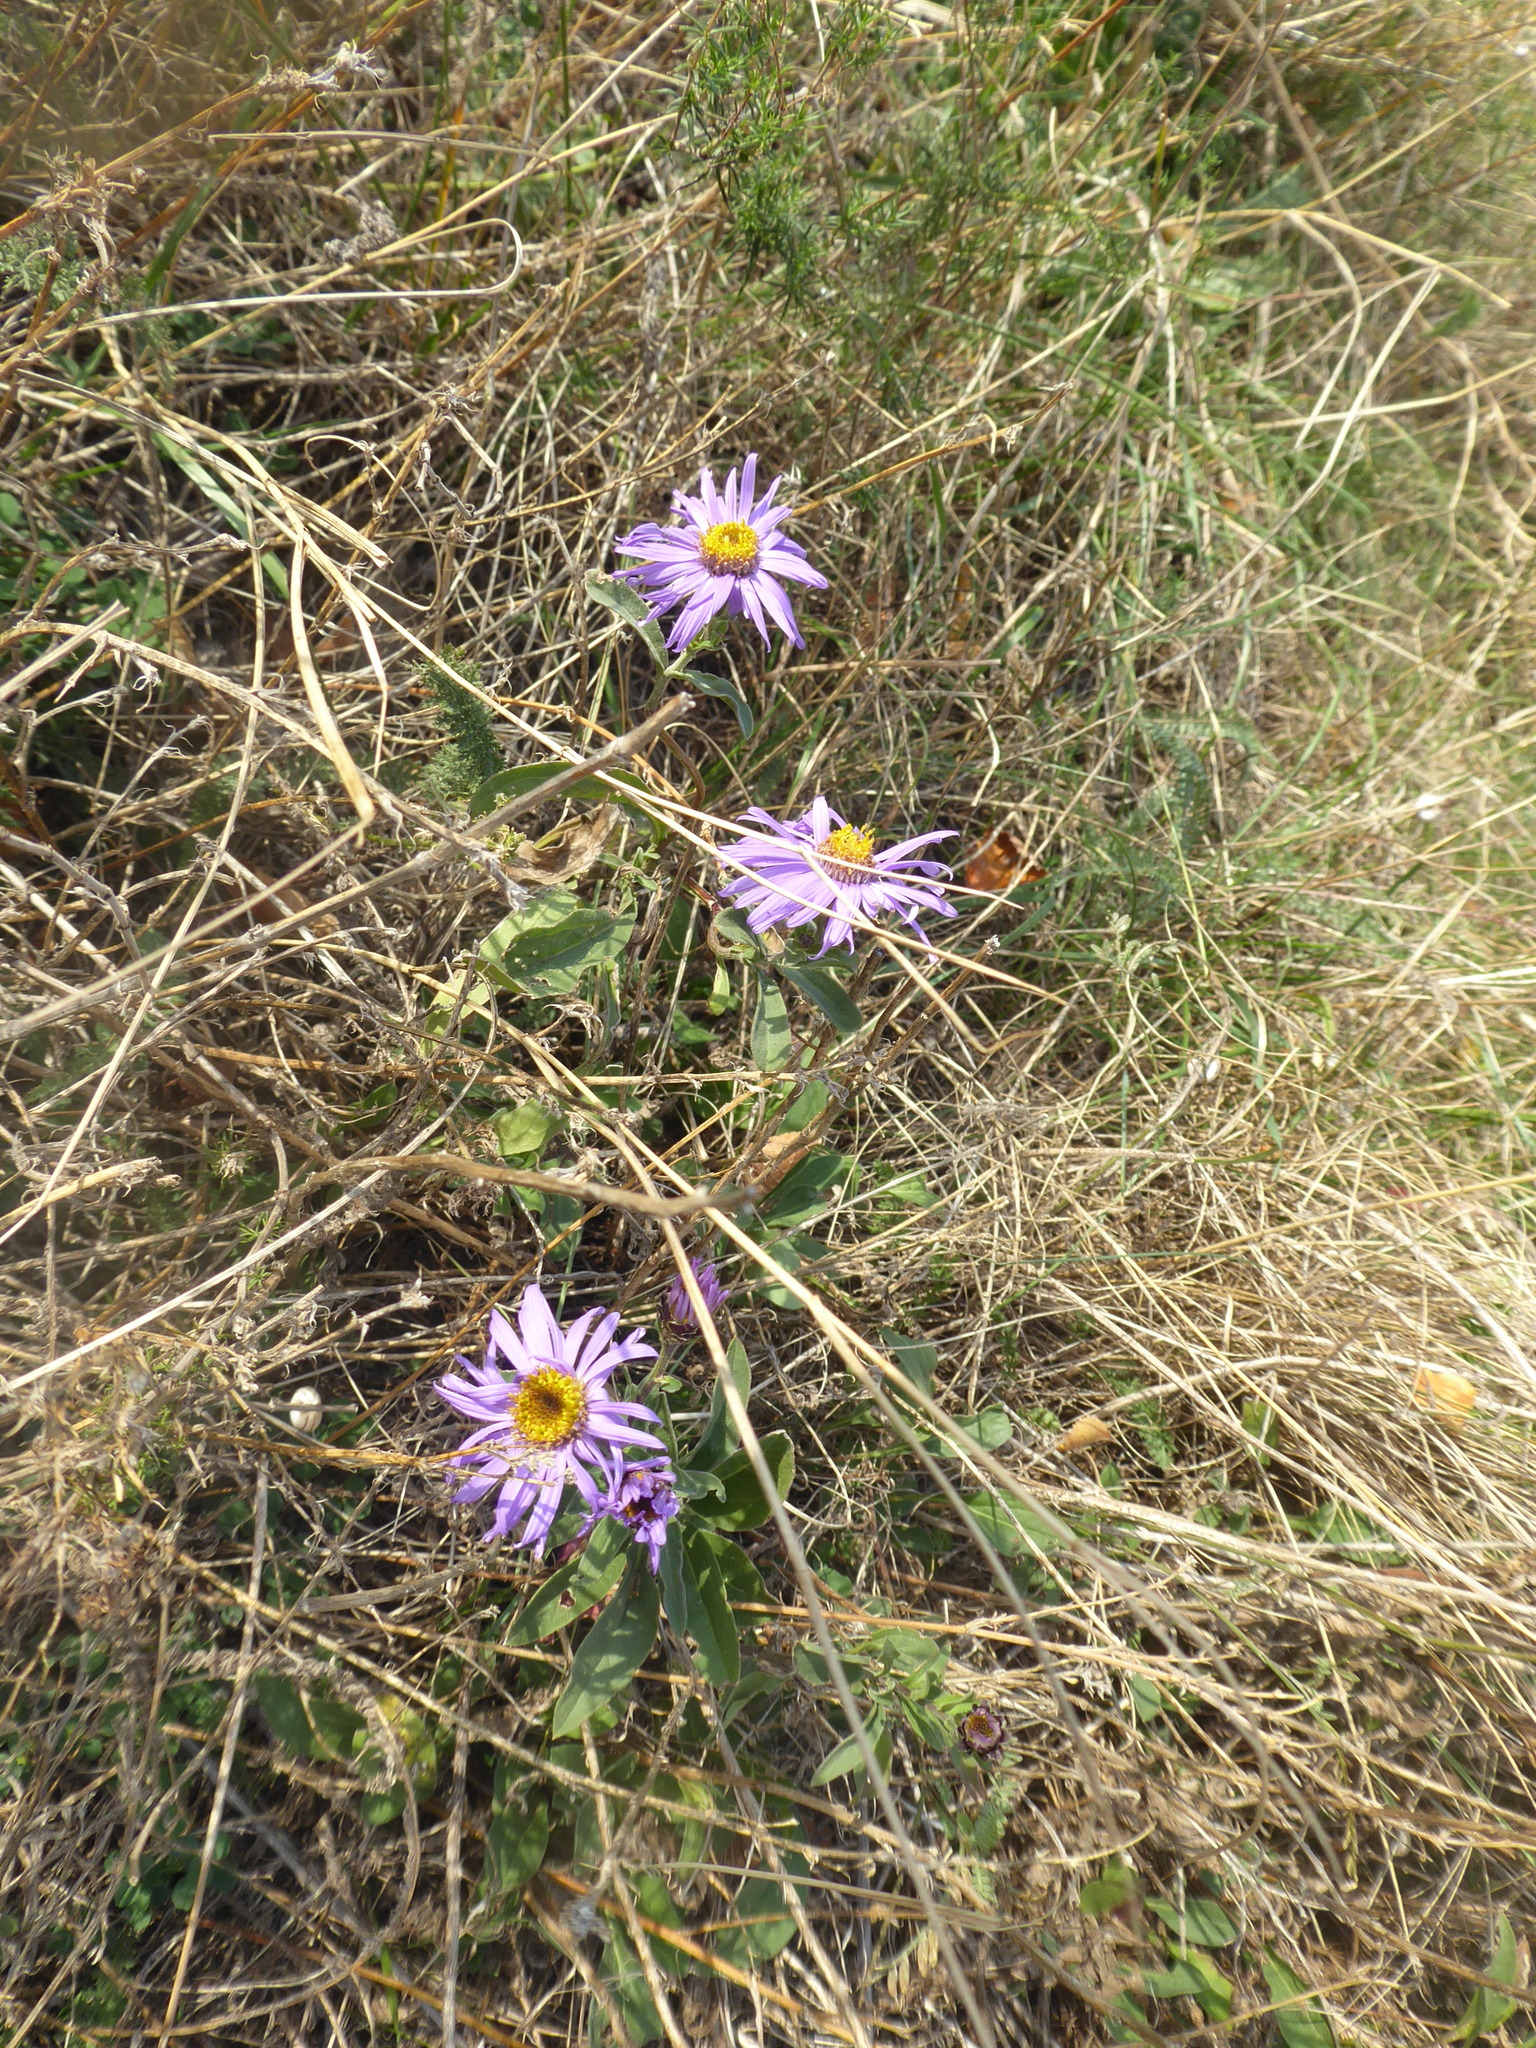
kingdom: Plantae
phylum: Tracheophyta
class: Magnoliopsida
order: Asterales
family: Asteraceae
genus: Aster
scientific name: Aster amellus
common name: European michaelmas daisy
